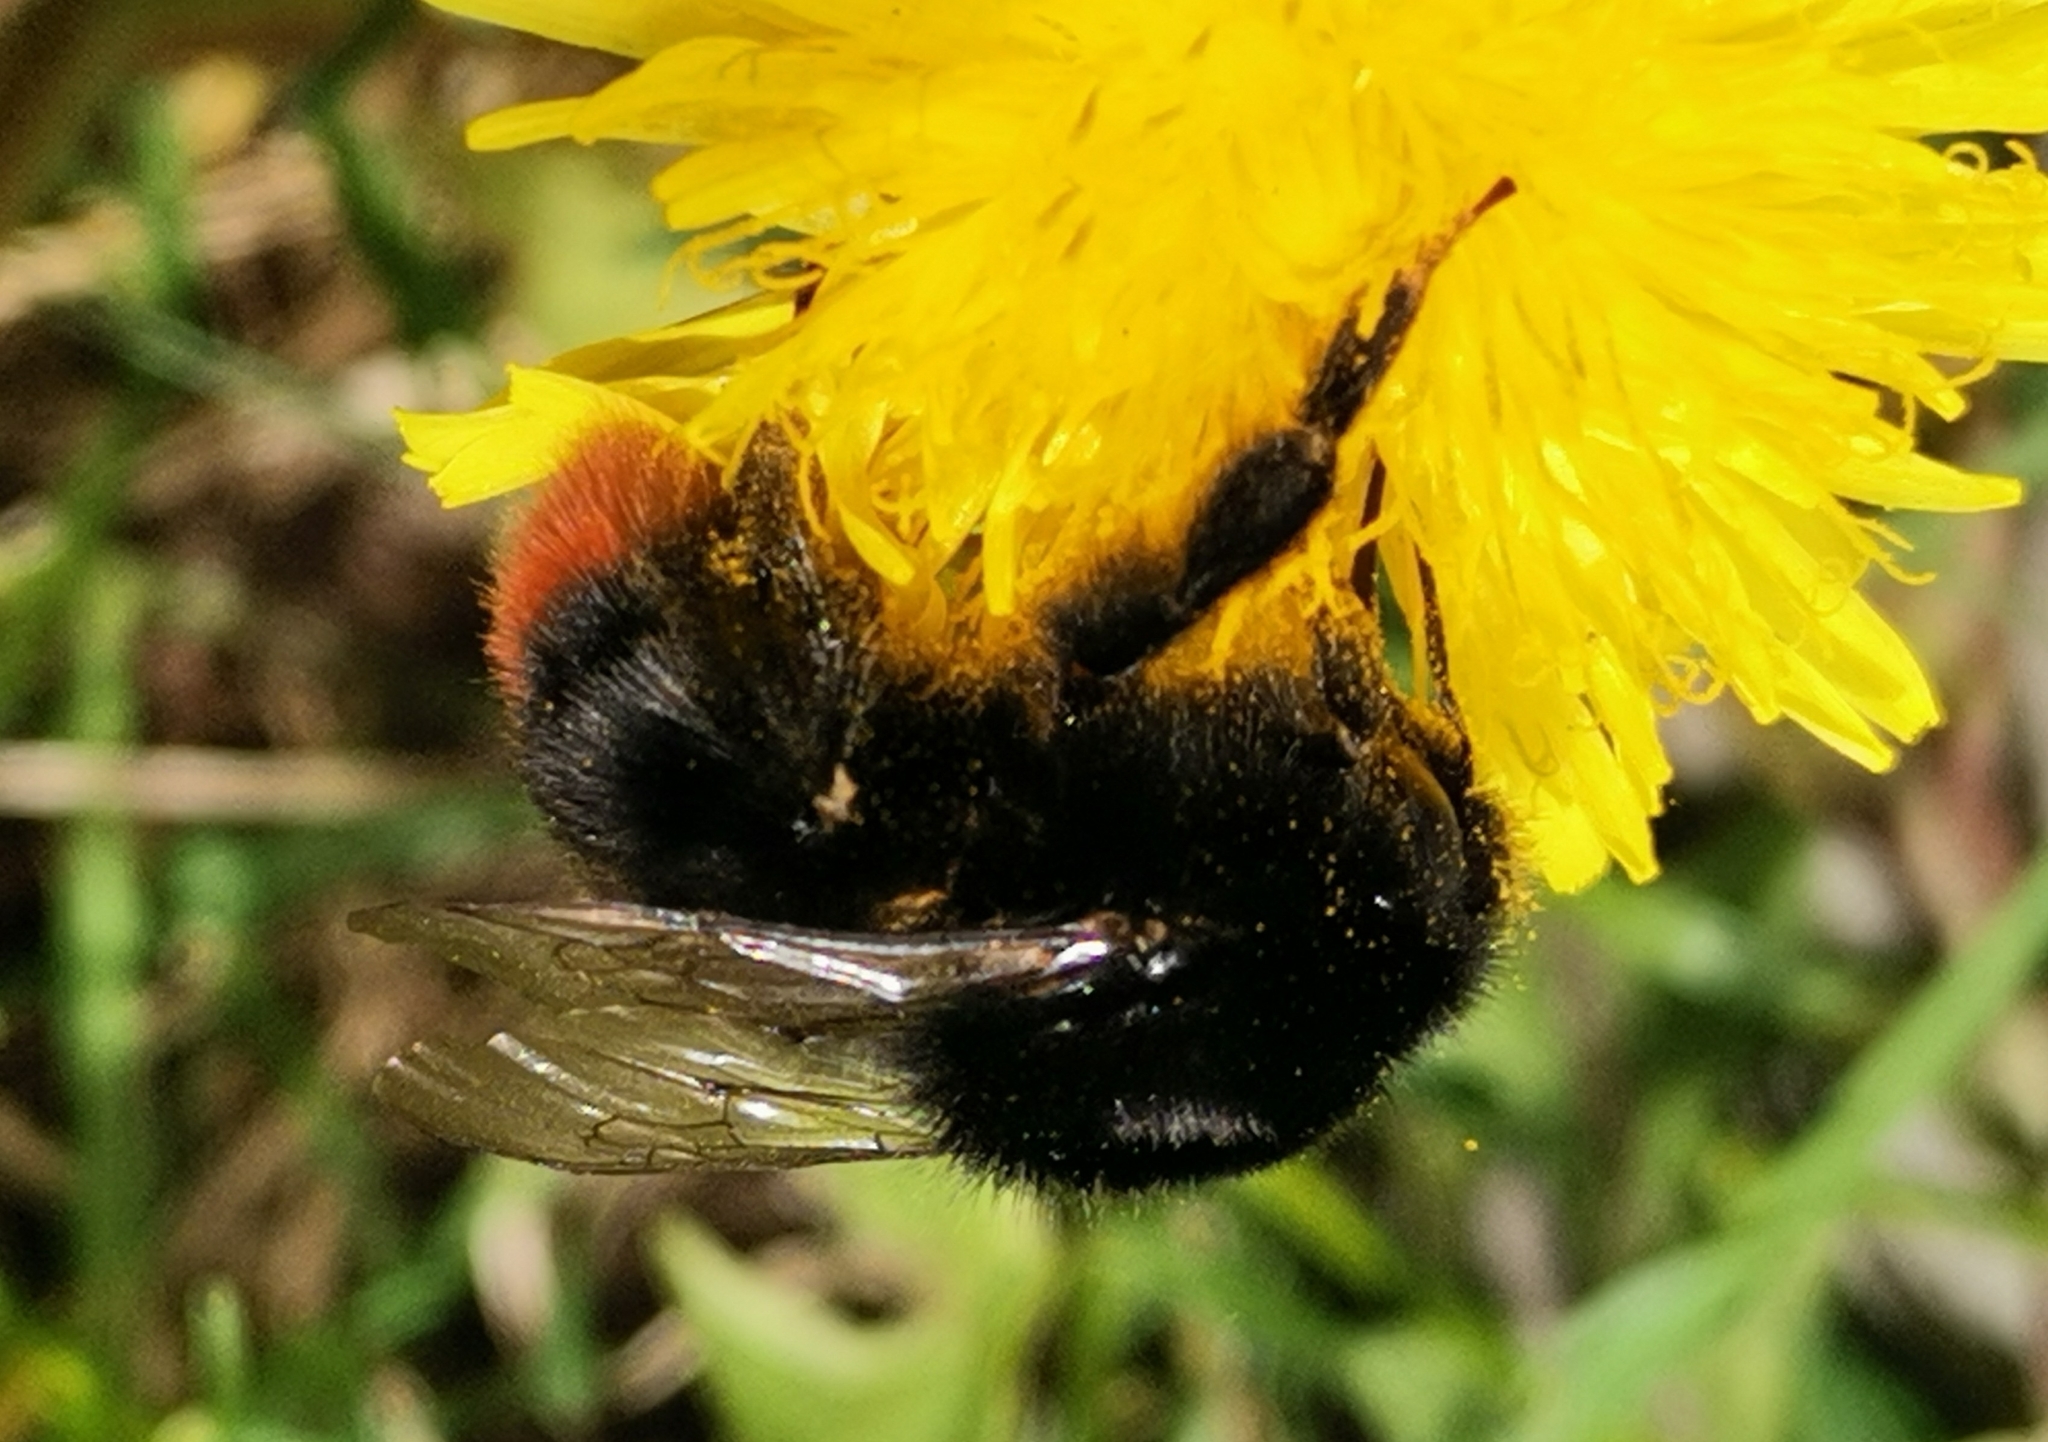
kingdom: Animalia
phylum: Arthropoda
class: Insecta
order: Hymenoptera
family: Apidae
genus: Bombus
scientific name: Bombus lapidarius
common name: Large red-tailed humble-bee
